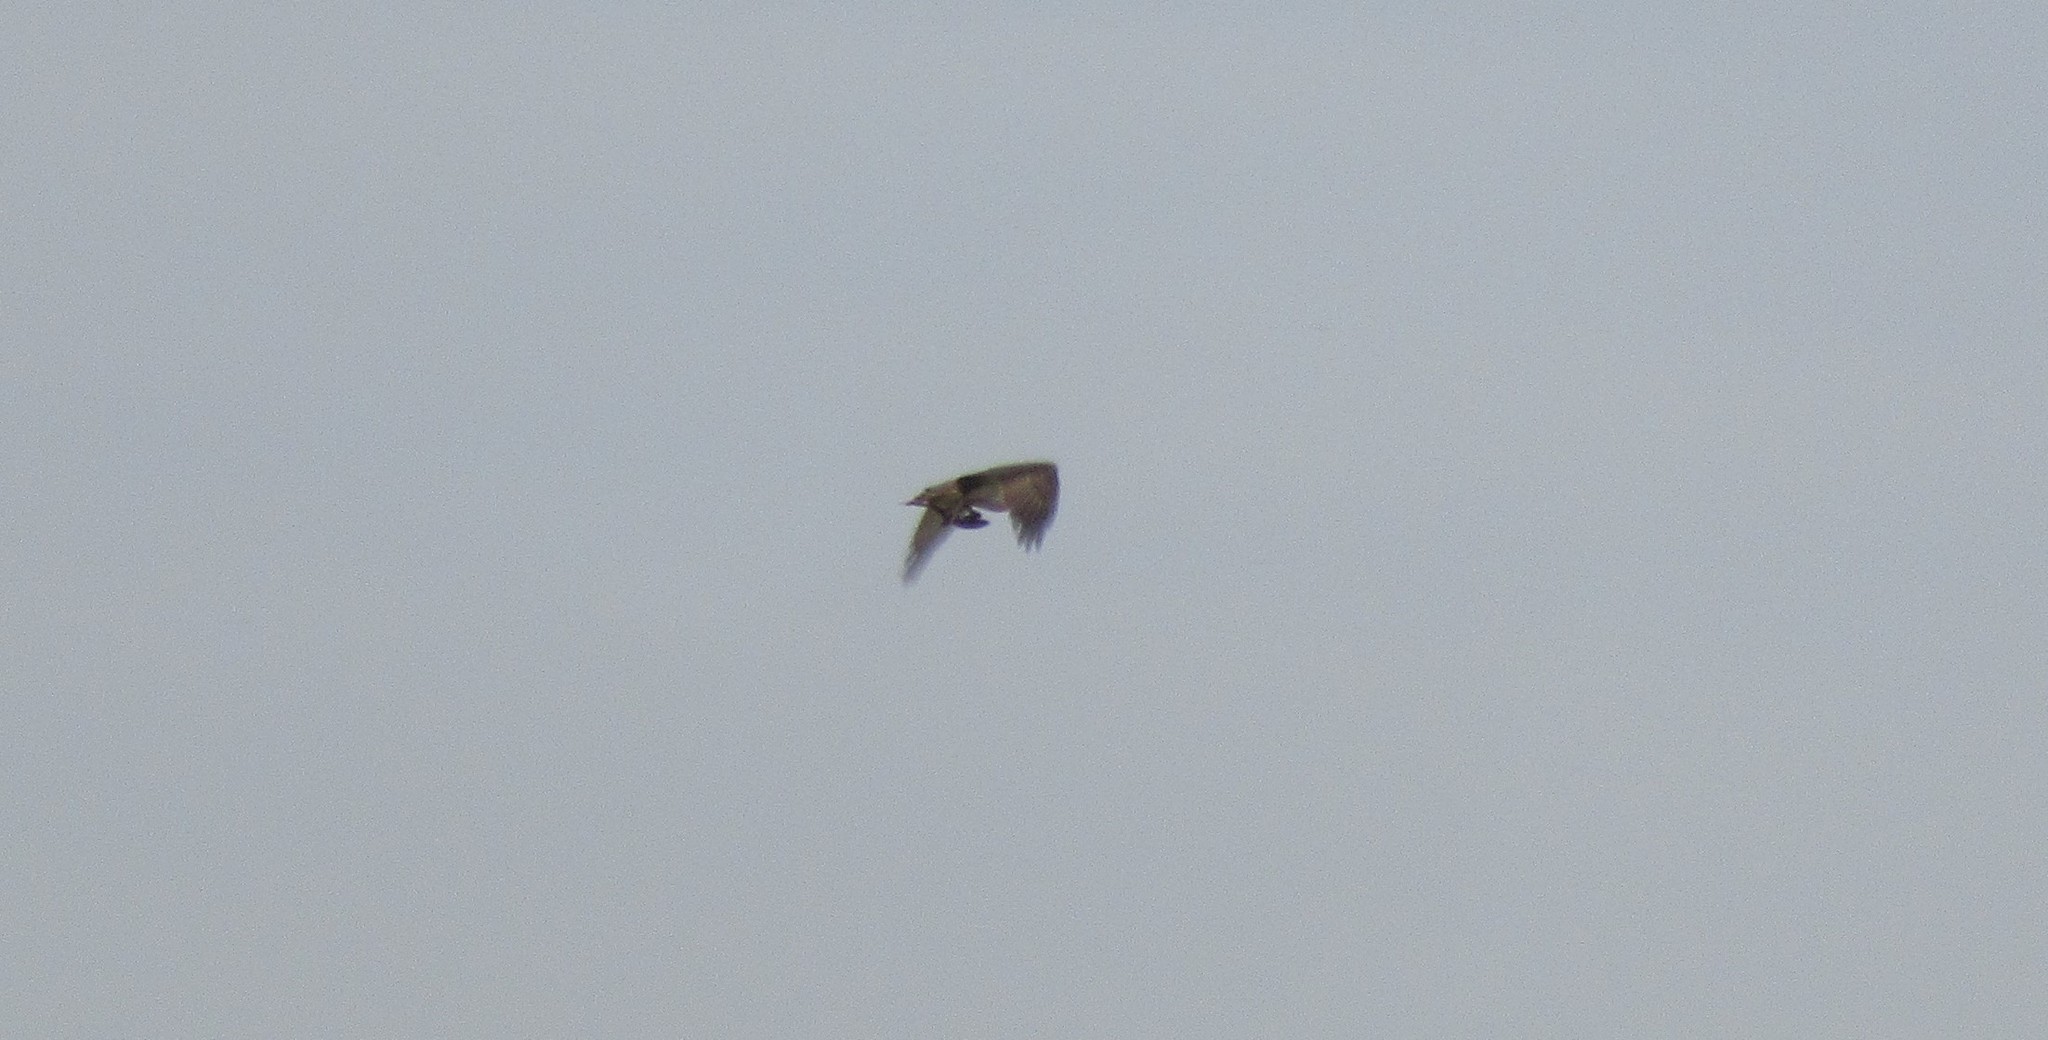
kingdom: Animalia
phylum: Chordata
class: Aves
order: Accipitriformes
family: Pandionidae
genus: Pandion
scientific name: Pandion haliaetus
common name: Osprey
